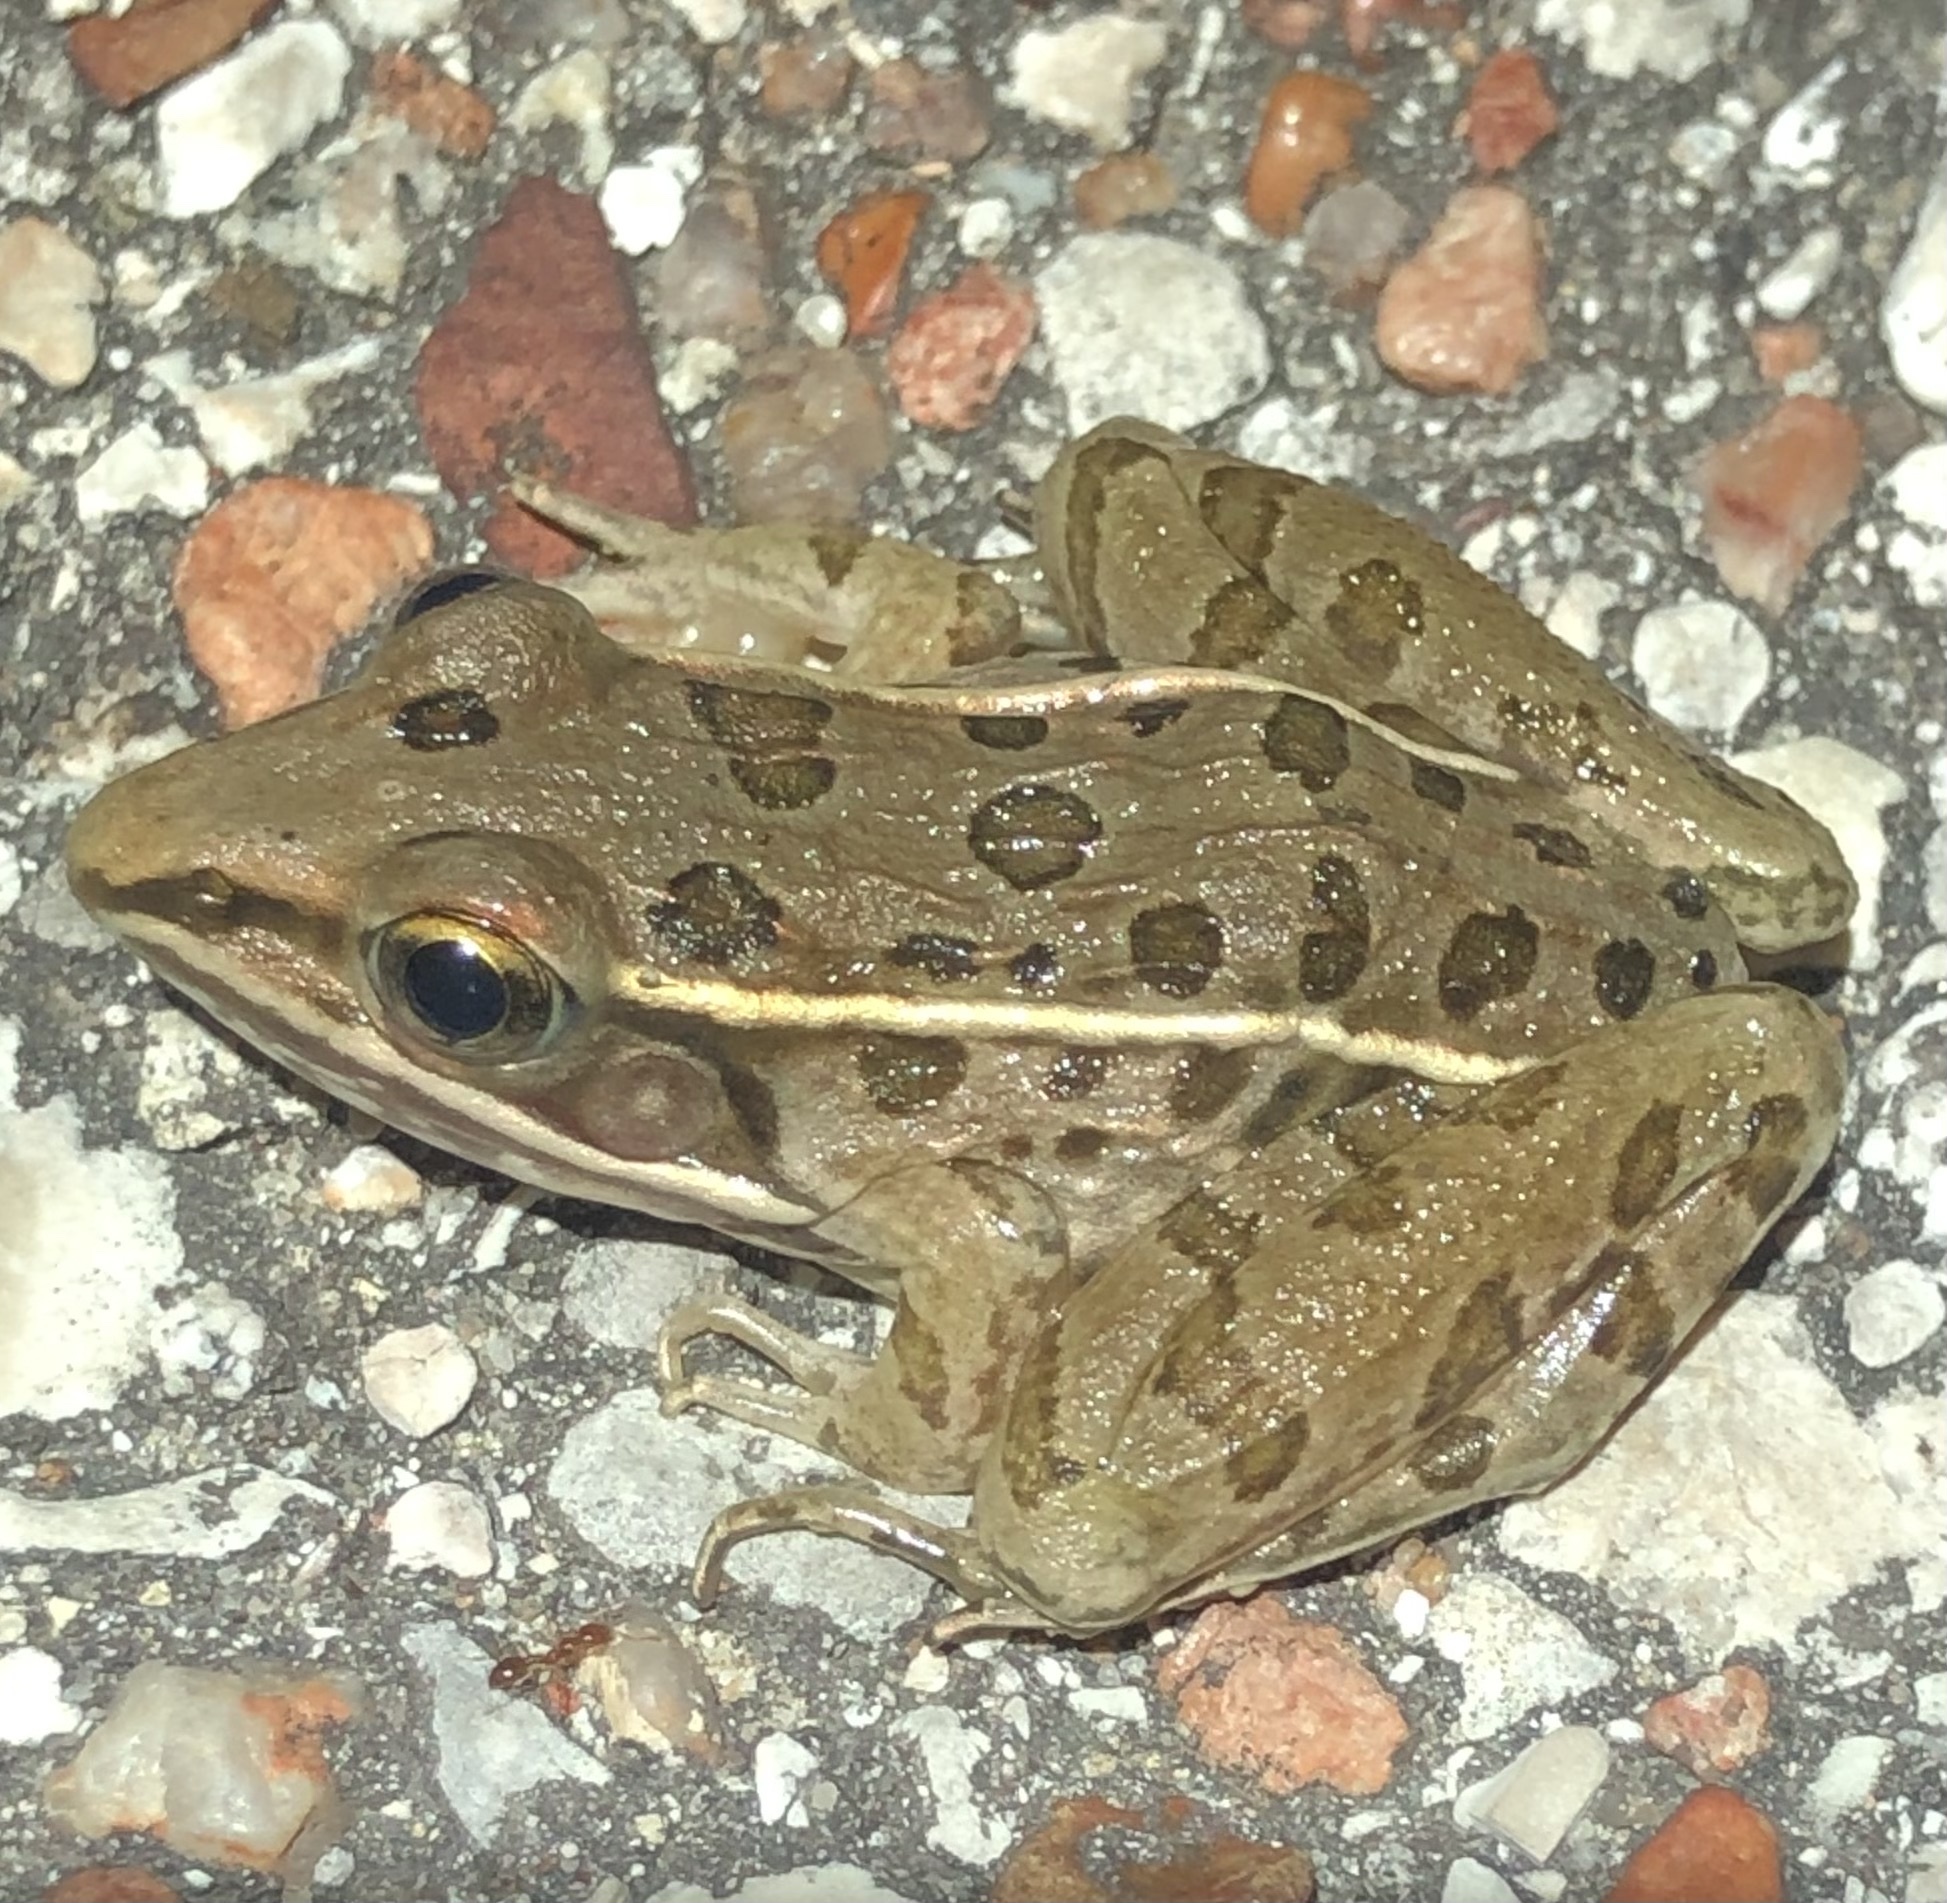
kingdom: Animalia
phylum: Chordata
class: Amphibia
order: Anura
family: Ranidae
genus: Lithobates
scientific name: Lithobates sphenocephalus
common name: Southern leopard frog
